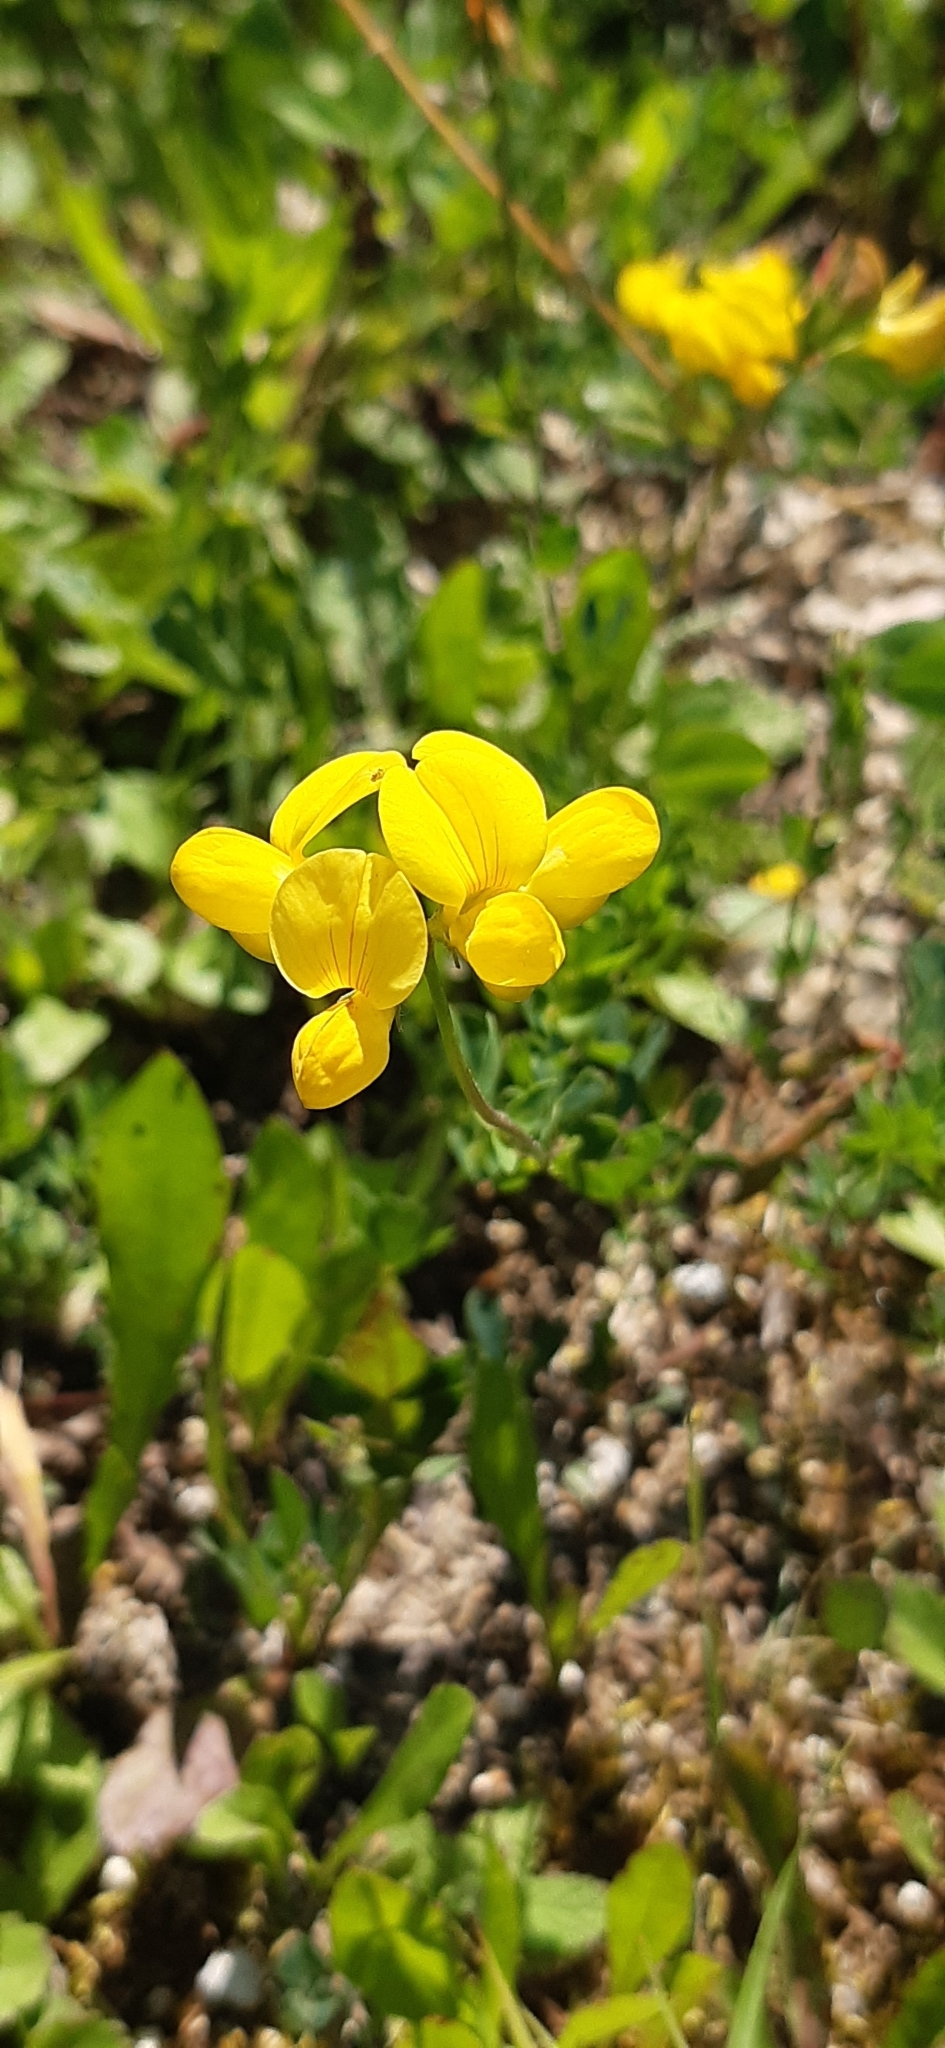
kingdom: Plantae
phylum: Tracheophyta
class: Magnoliopsida
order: Fabales
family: Fabaceae
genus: Lotus
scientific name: Lotus corniculatus
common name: Common bird's-foot-trefoil
